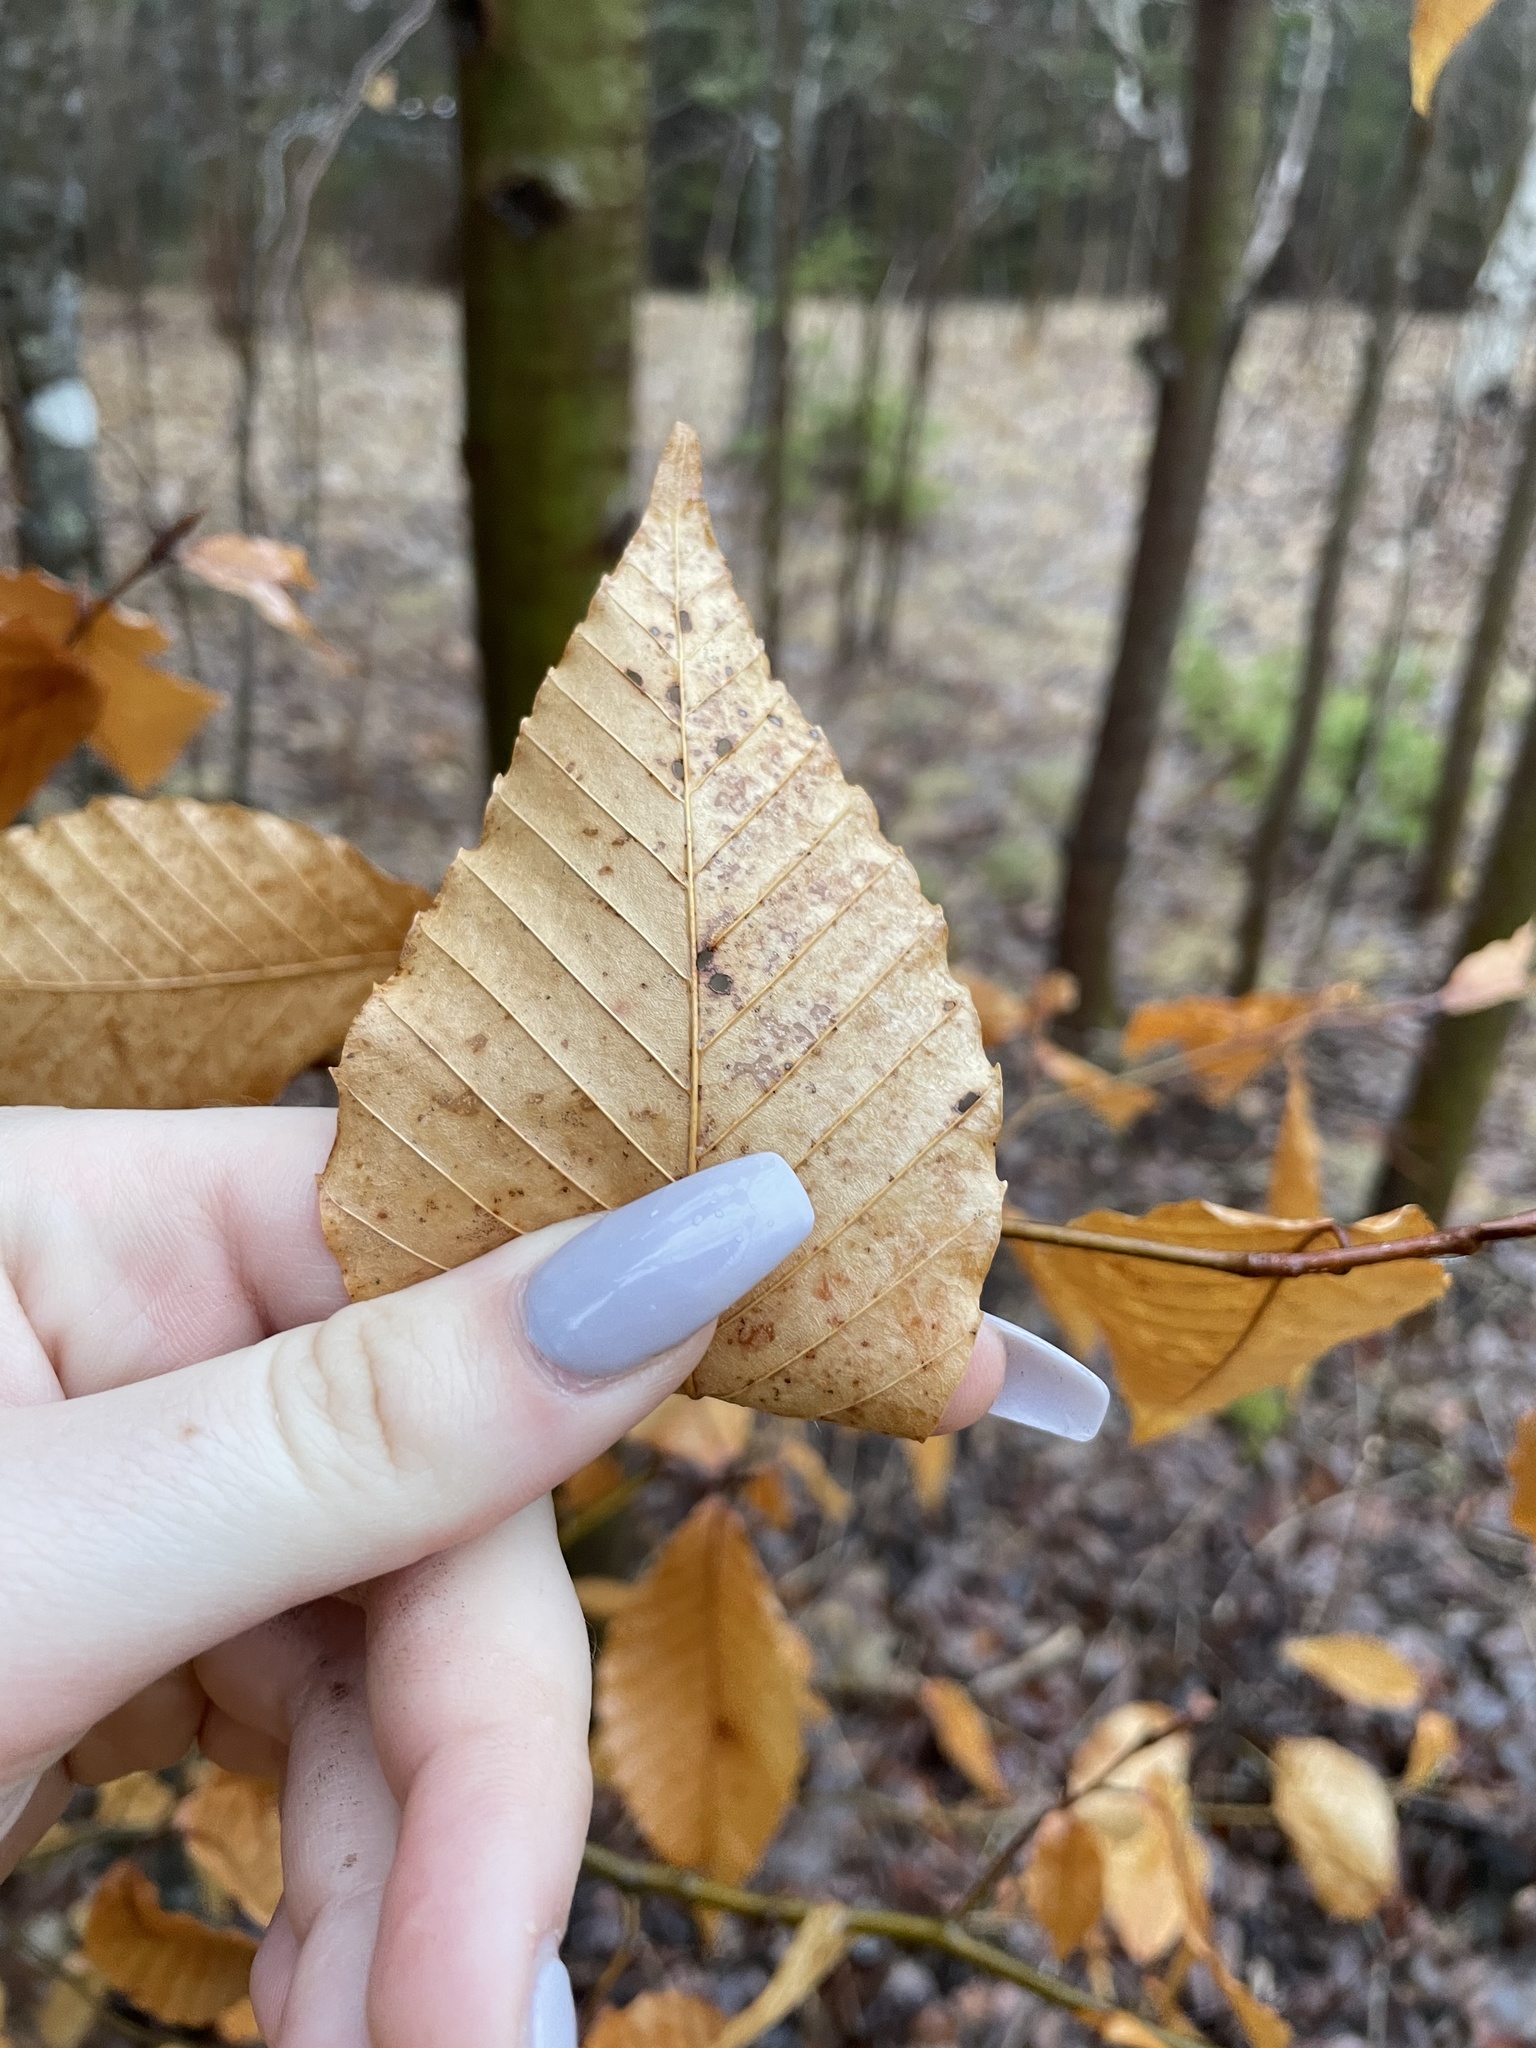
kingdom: Plantae
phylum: Tracheophyta
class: Magnoliopsida
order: Fagales
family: Fagaceae
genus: Fagus
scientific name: Fagus grandifolia
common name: American beech
